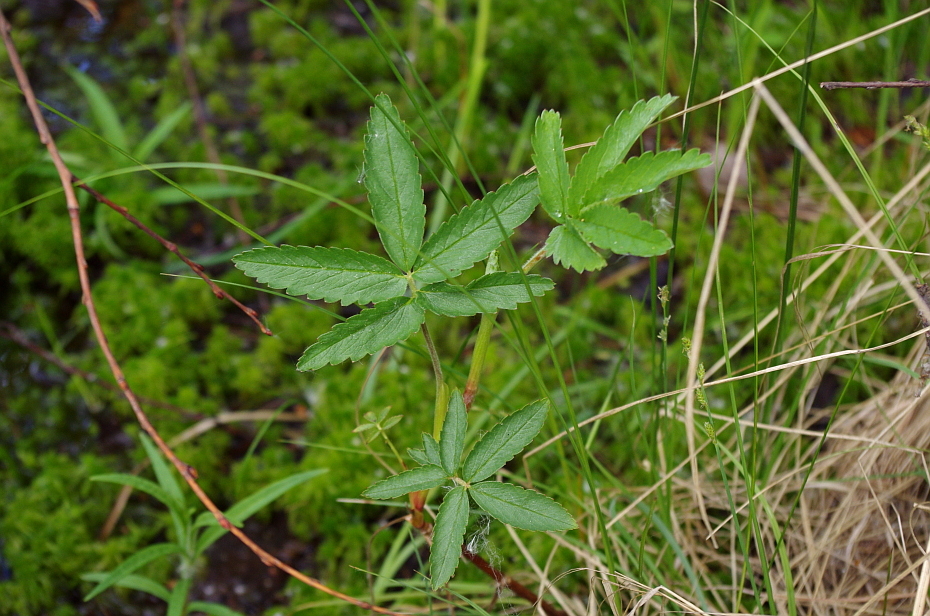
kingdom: Plantae
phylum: Tracheophyta
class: Magnoliopsida
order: Rosales
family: Rosaceae
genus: Comarum
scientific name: Comarum palustre
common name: Marsh cinquefoil
